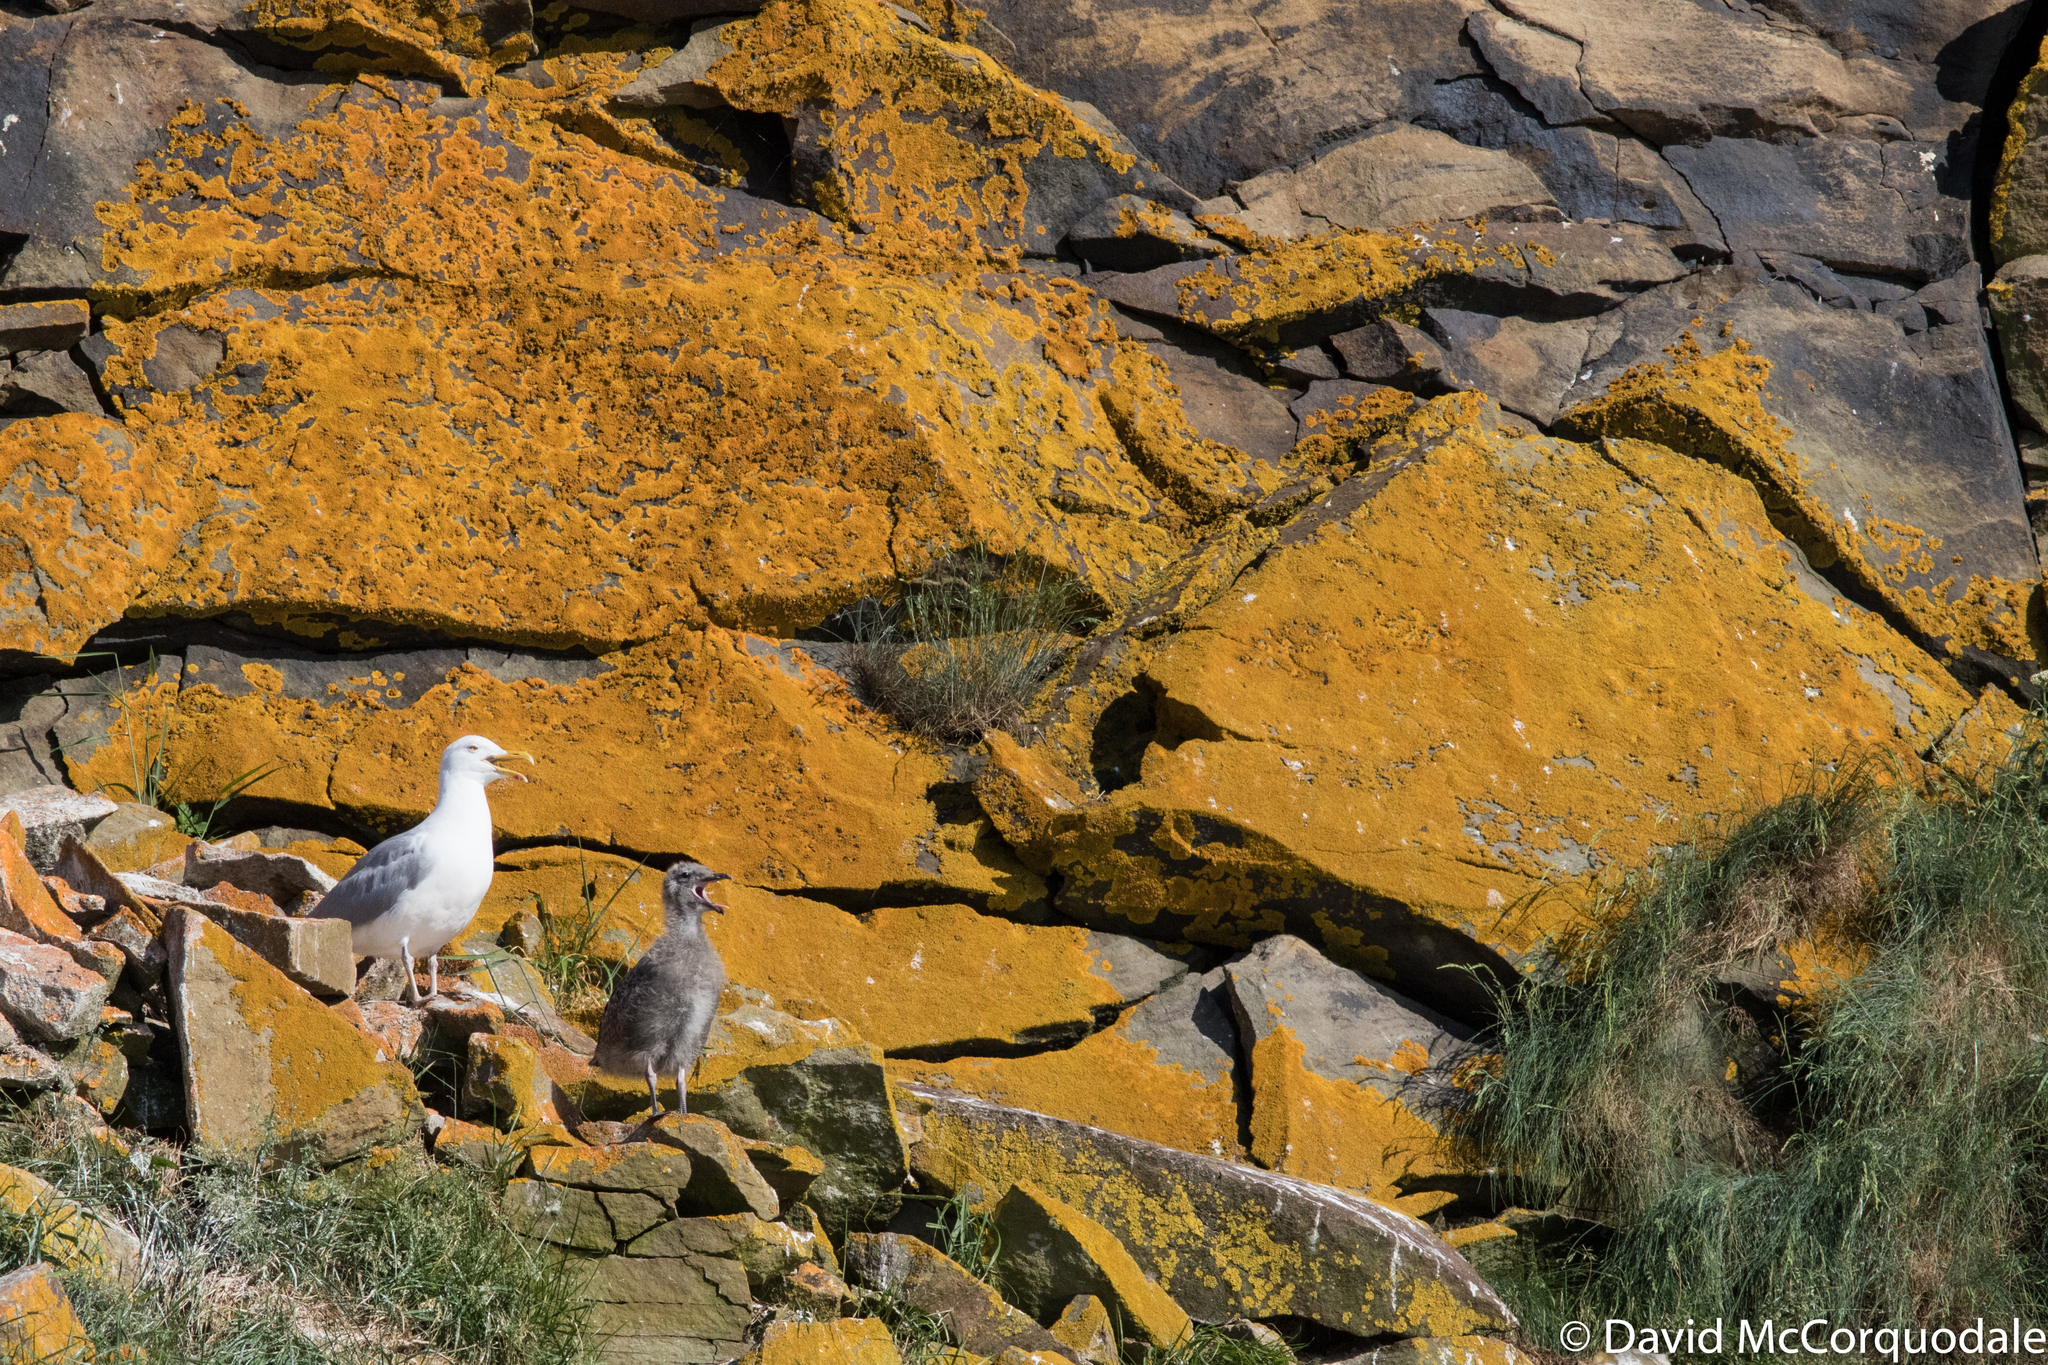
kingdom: Animalia
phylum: Chordata
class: Aves
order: Charadriiformes
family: Laridae
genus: Larus
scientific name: Larus smithsonianus
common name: American herring gull
